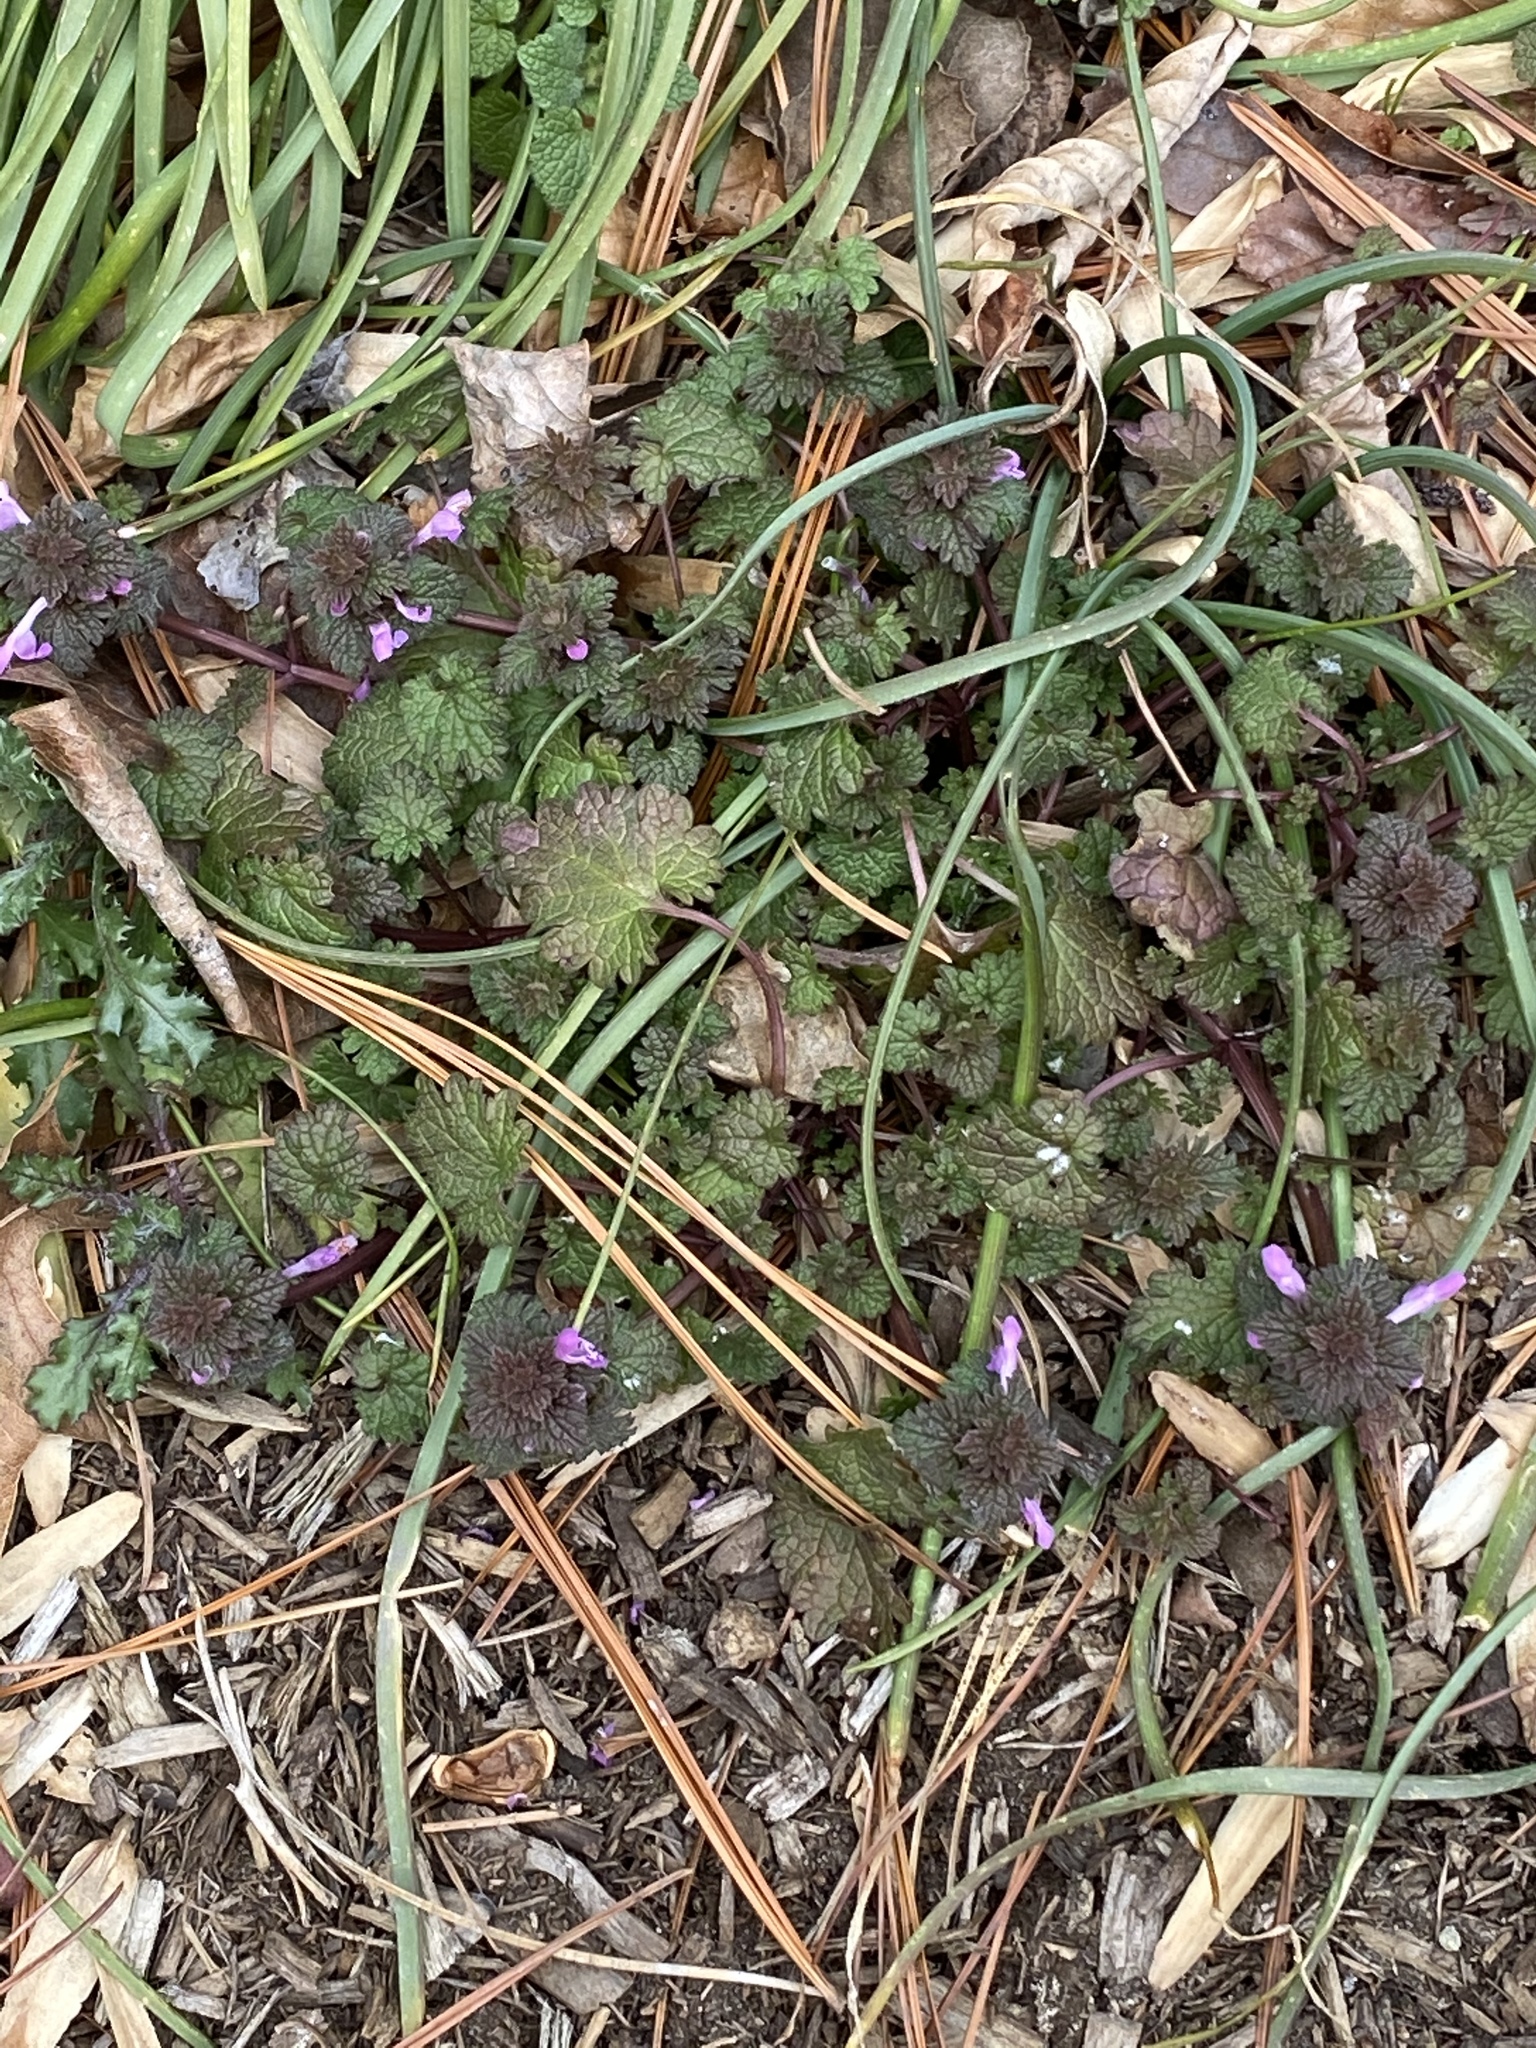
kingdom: Plantae
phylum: Tracheophyta
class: Magnoliopsida
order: Lamiales
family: Lamiaceae
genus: Lamium
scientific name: Lamium hybridum
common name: Cut-leaved dead-nettle
